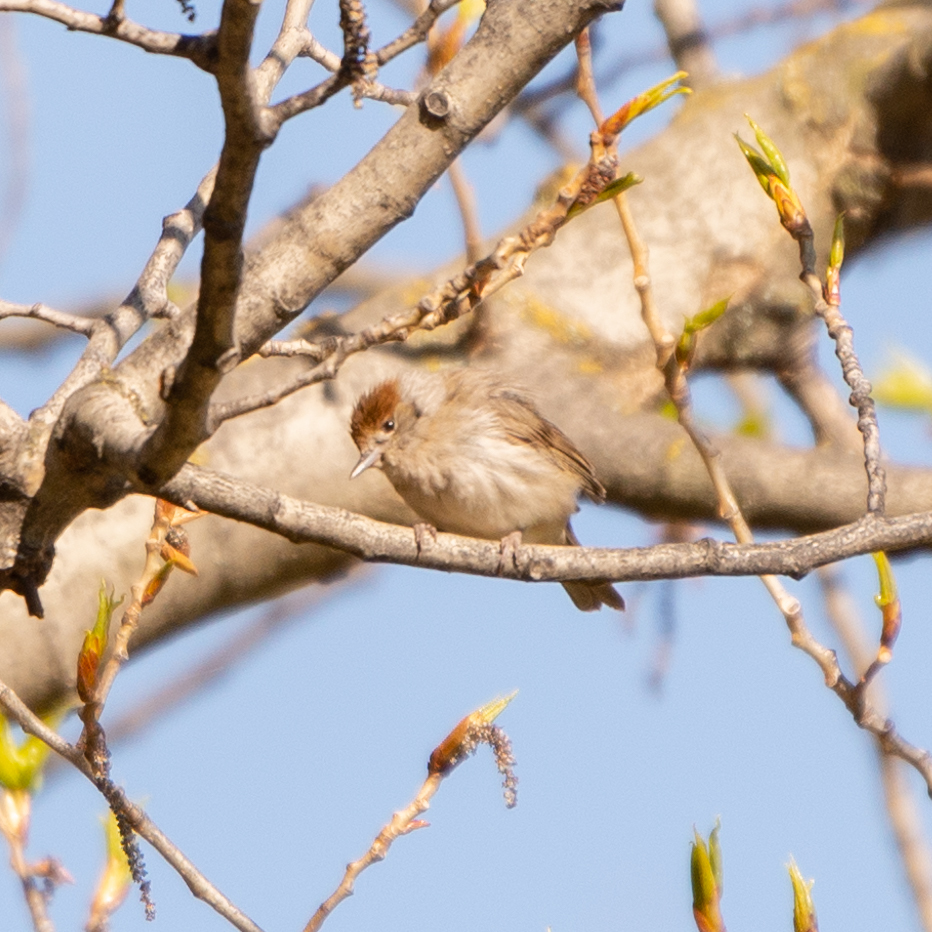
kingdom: Animalia
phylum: Chordata
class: Aves
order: Passeriformes
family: Sylviidae
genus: Sylvia
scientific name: Sylvia atricapilla
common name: Eurasian blackcap
